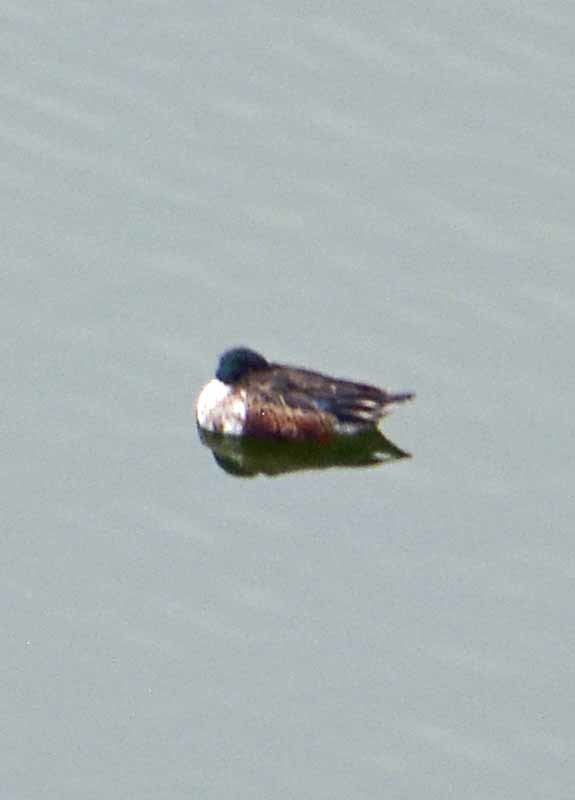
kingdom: Animalia
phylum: Chordata
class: Aves
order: Anseriformes
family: Anatidae
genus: Spatula
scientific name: Spatula clypeata
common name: Northern shoveler
